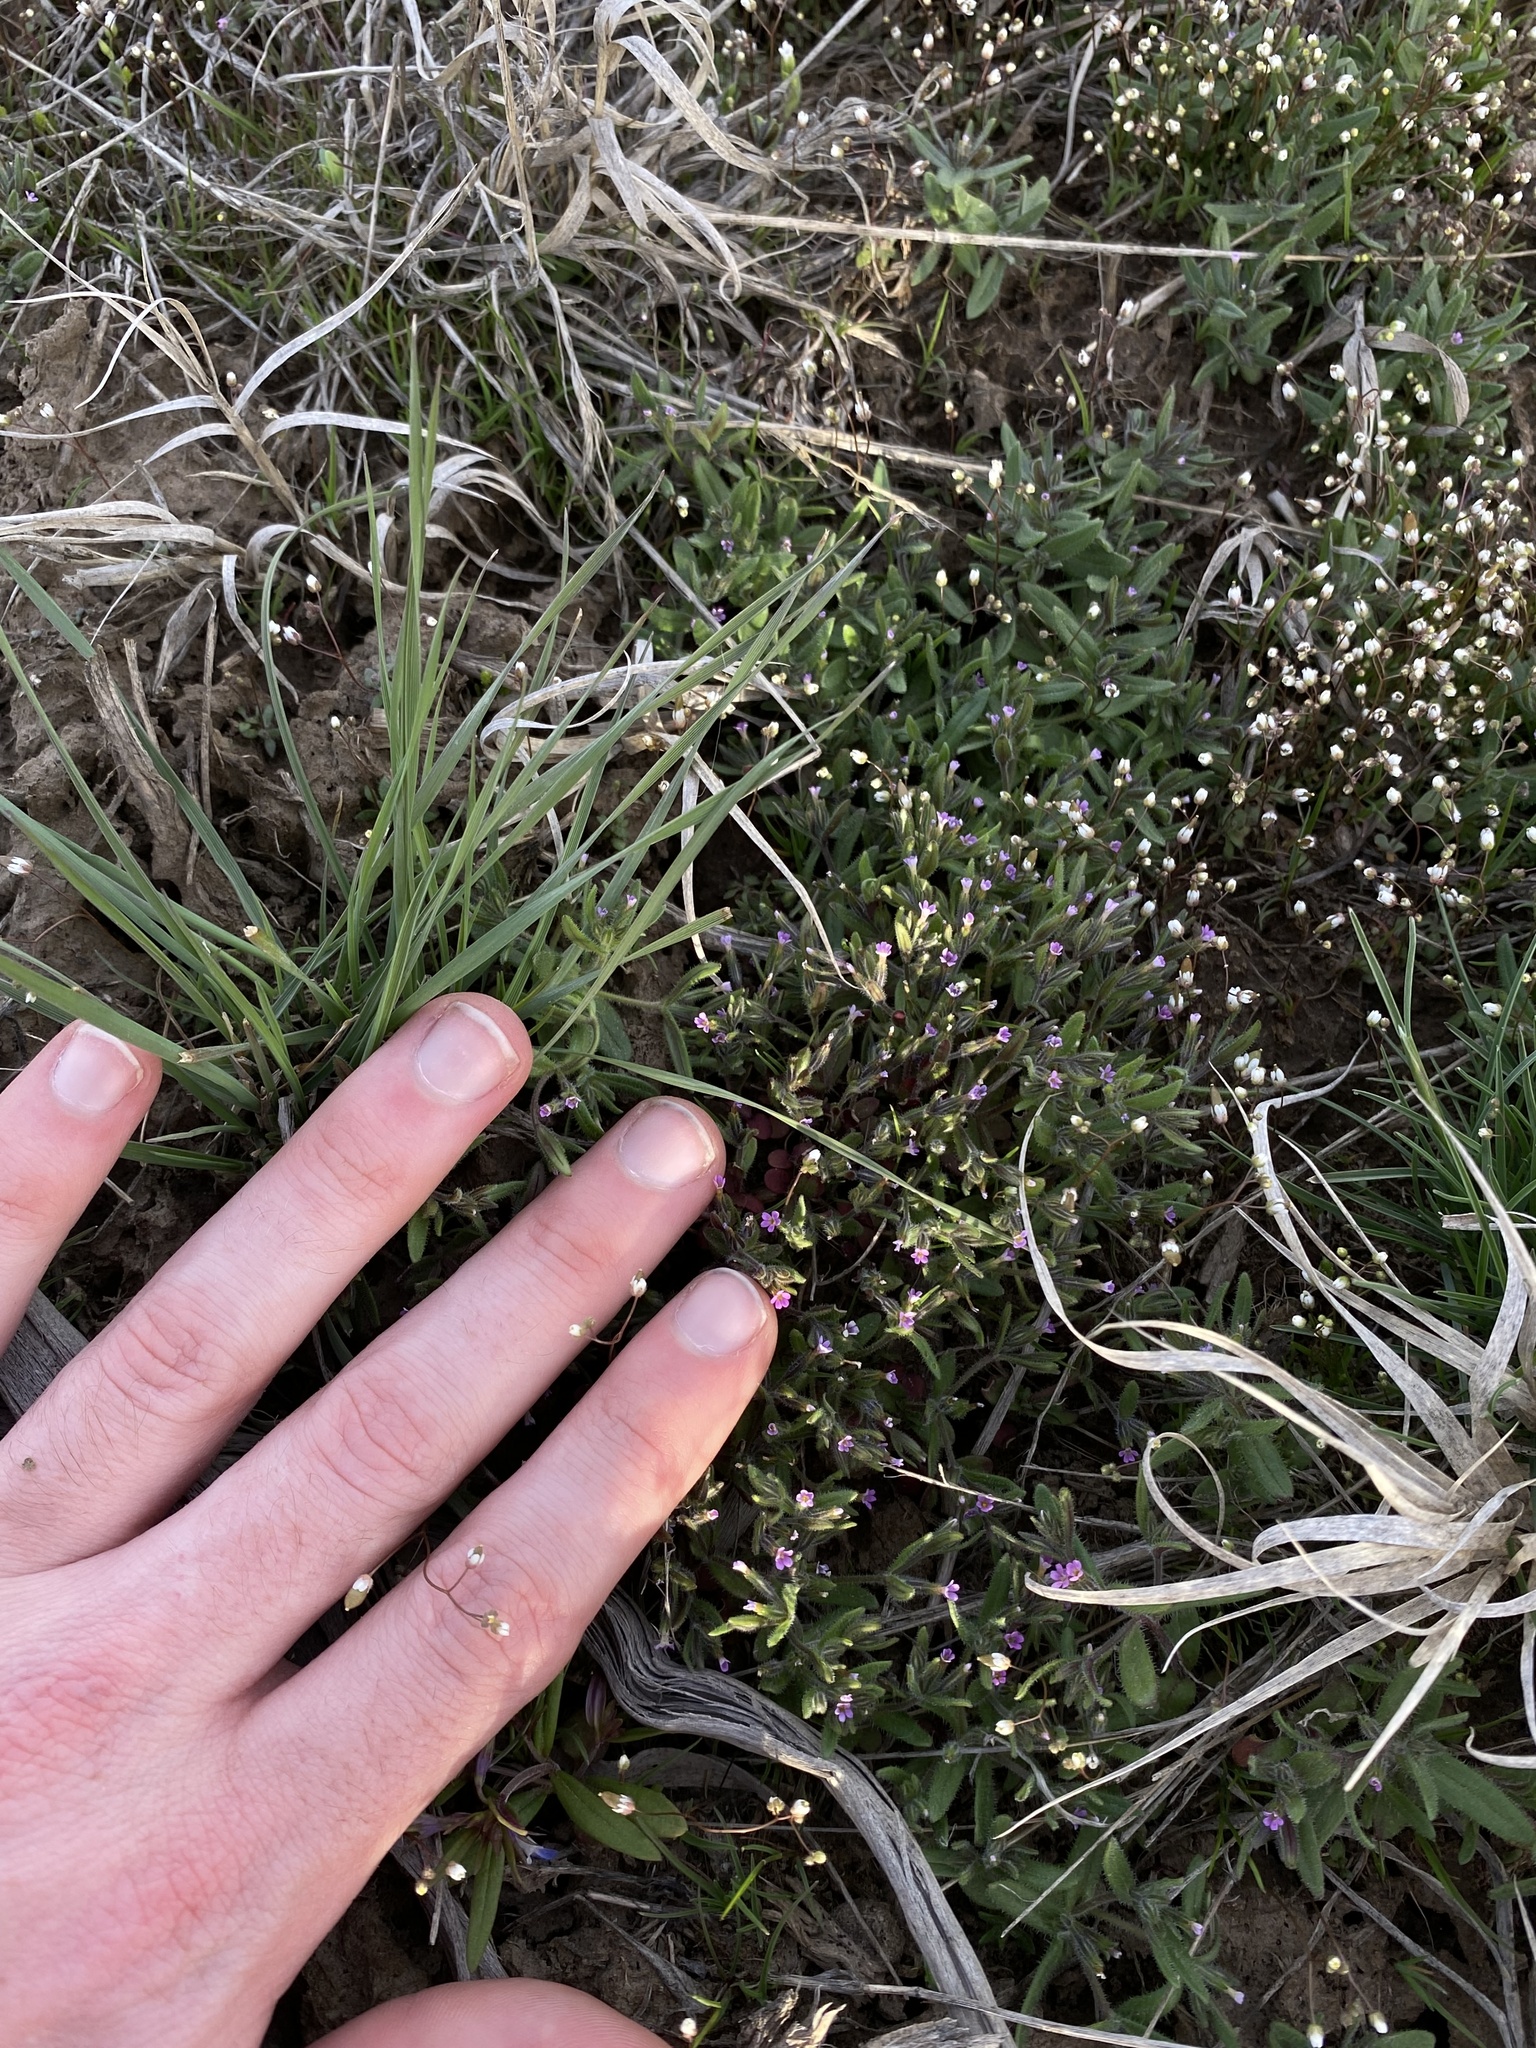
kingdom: Plantae
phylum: Tracheophyta
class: Magnoliopsida
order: Ericales
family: Polemoniaceae
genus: Phlox
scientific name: Phlox gracilis
